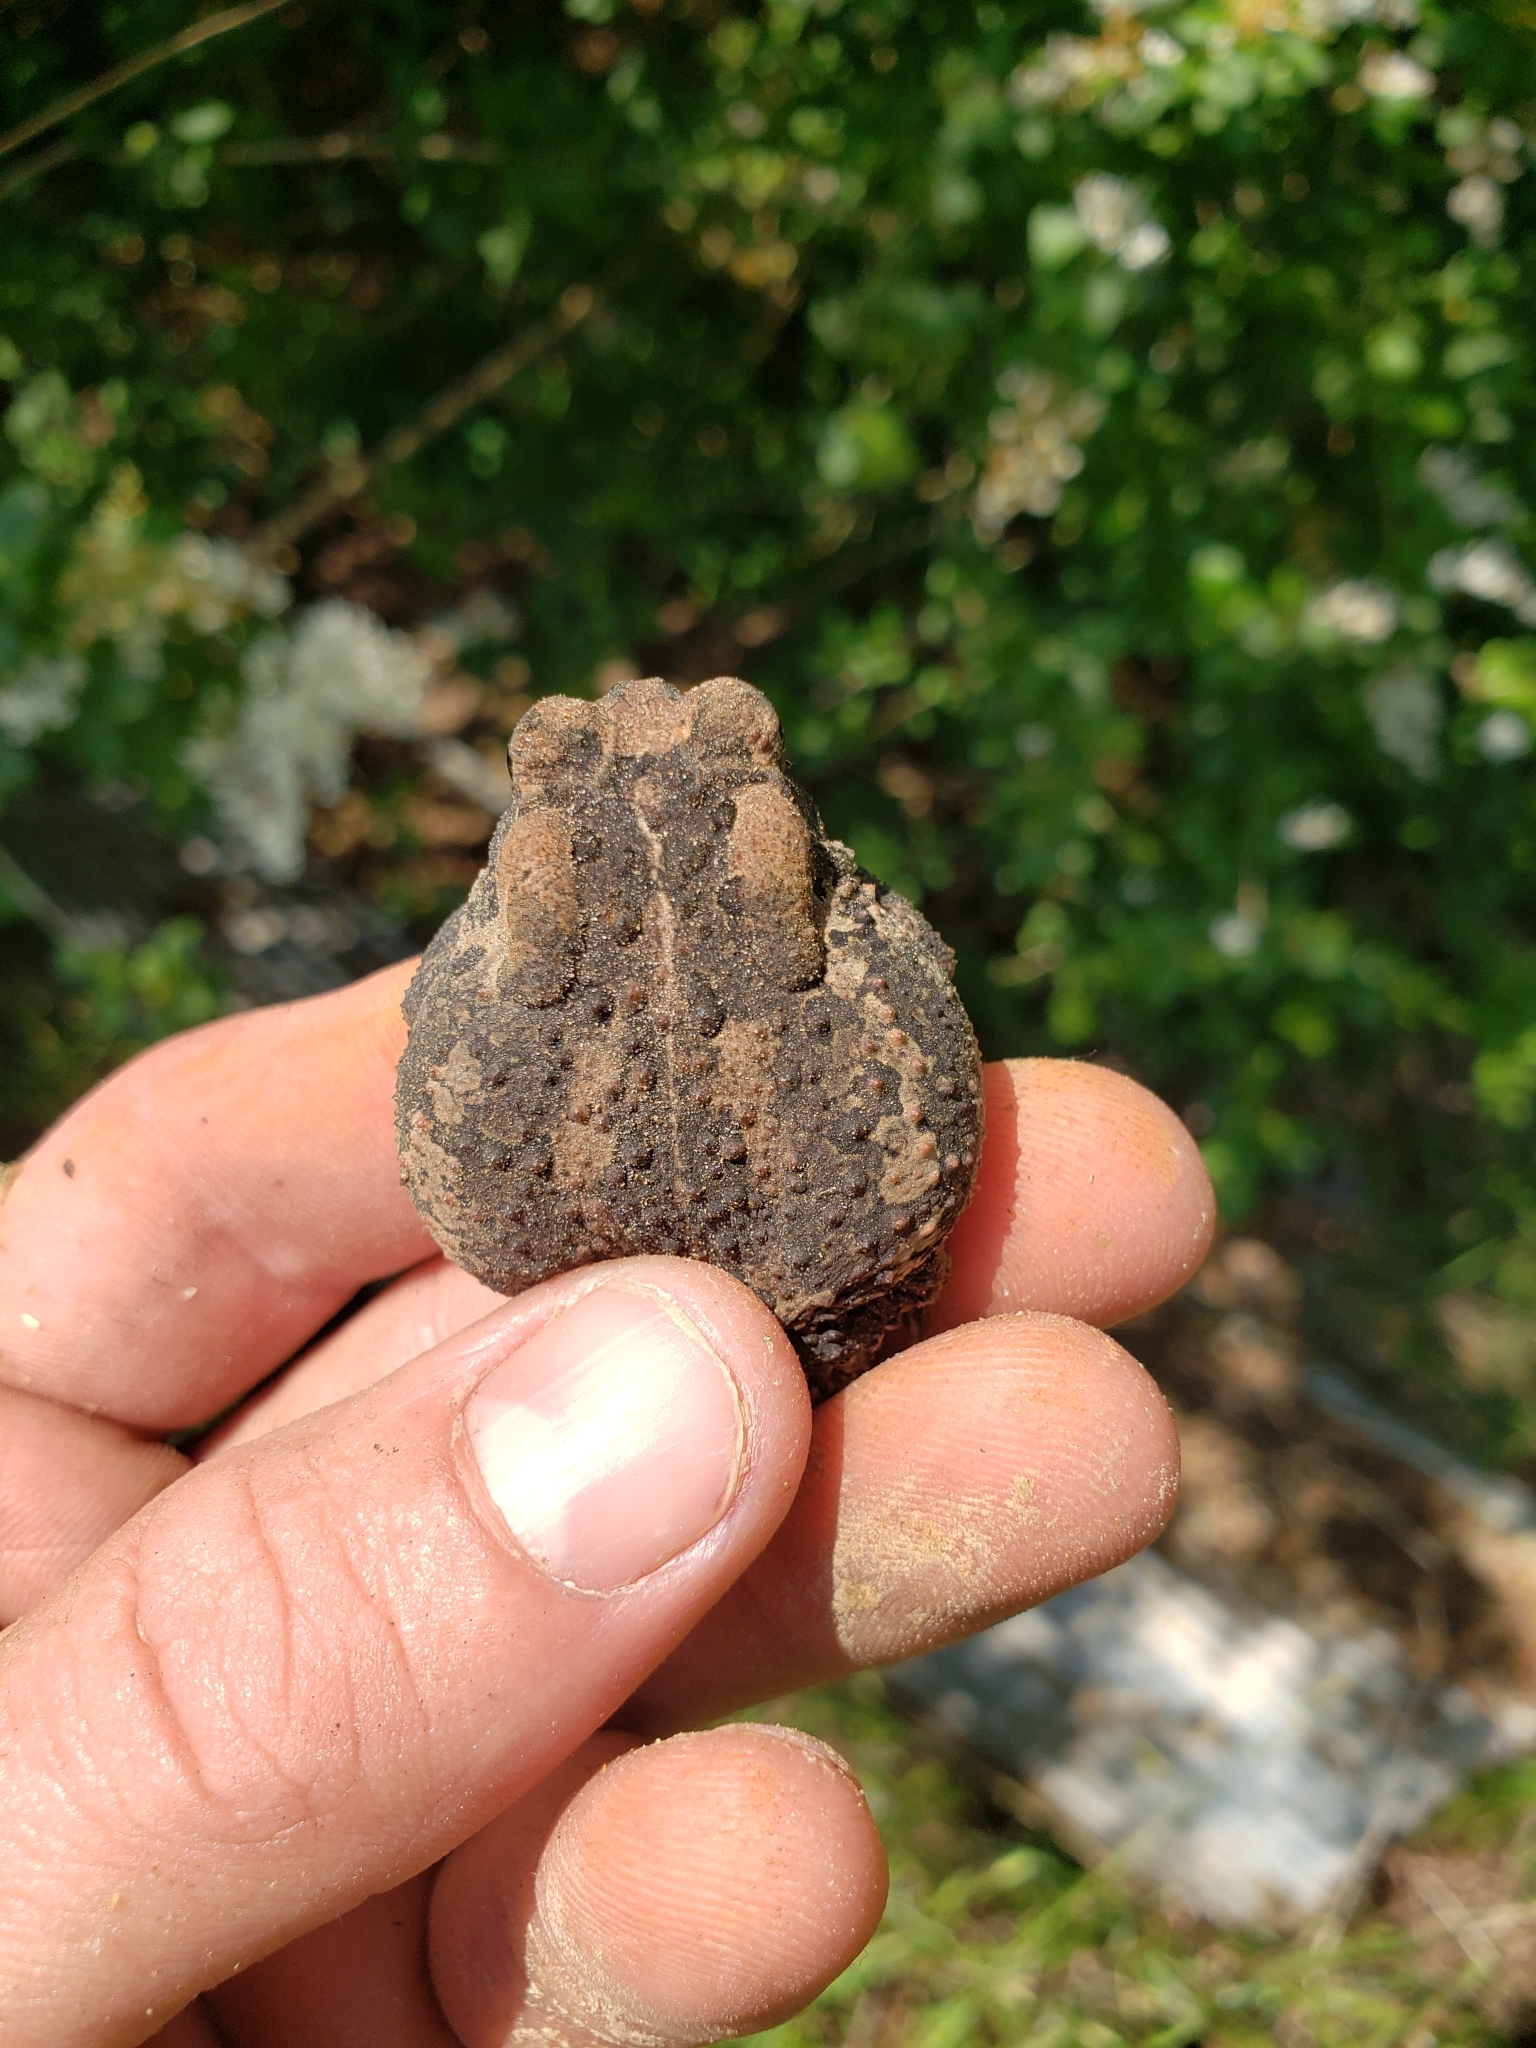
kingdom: Animalia
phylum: Chordata
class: Amphibia
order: Anura
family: Bufonidae
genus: Anaxyrus
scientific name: Anaxyrus americanus
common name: American toad
